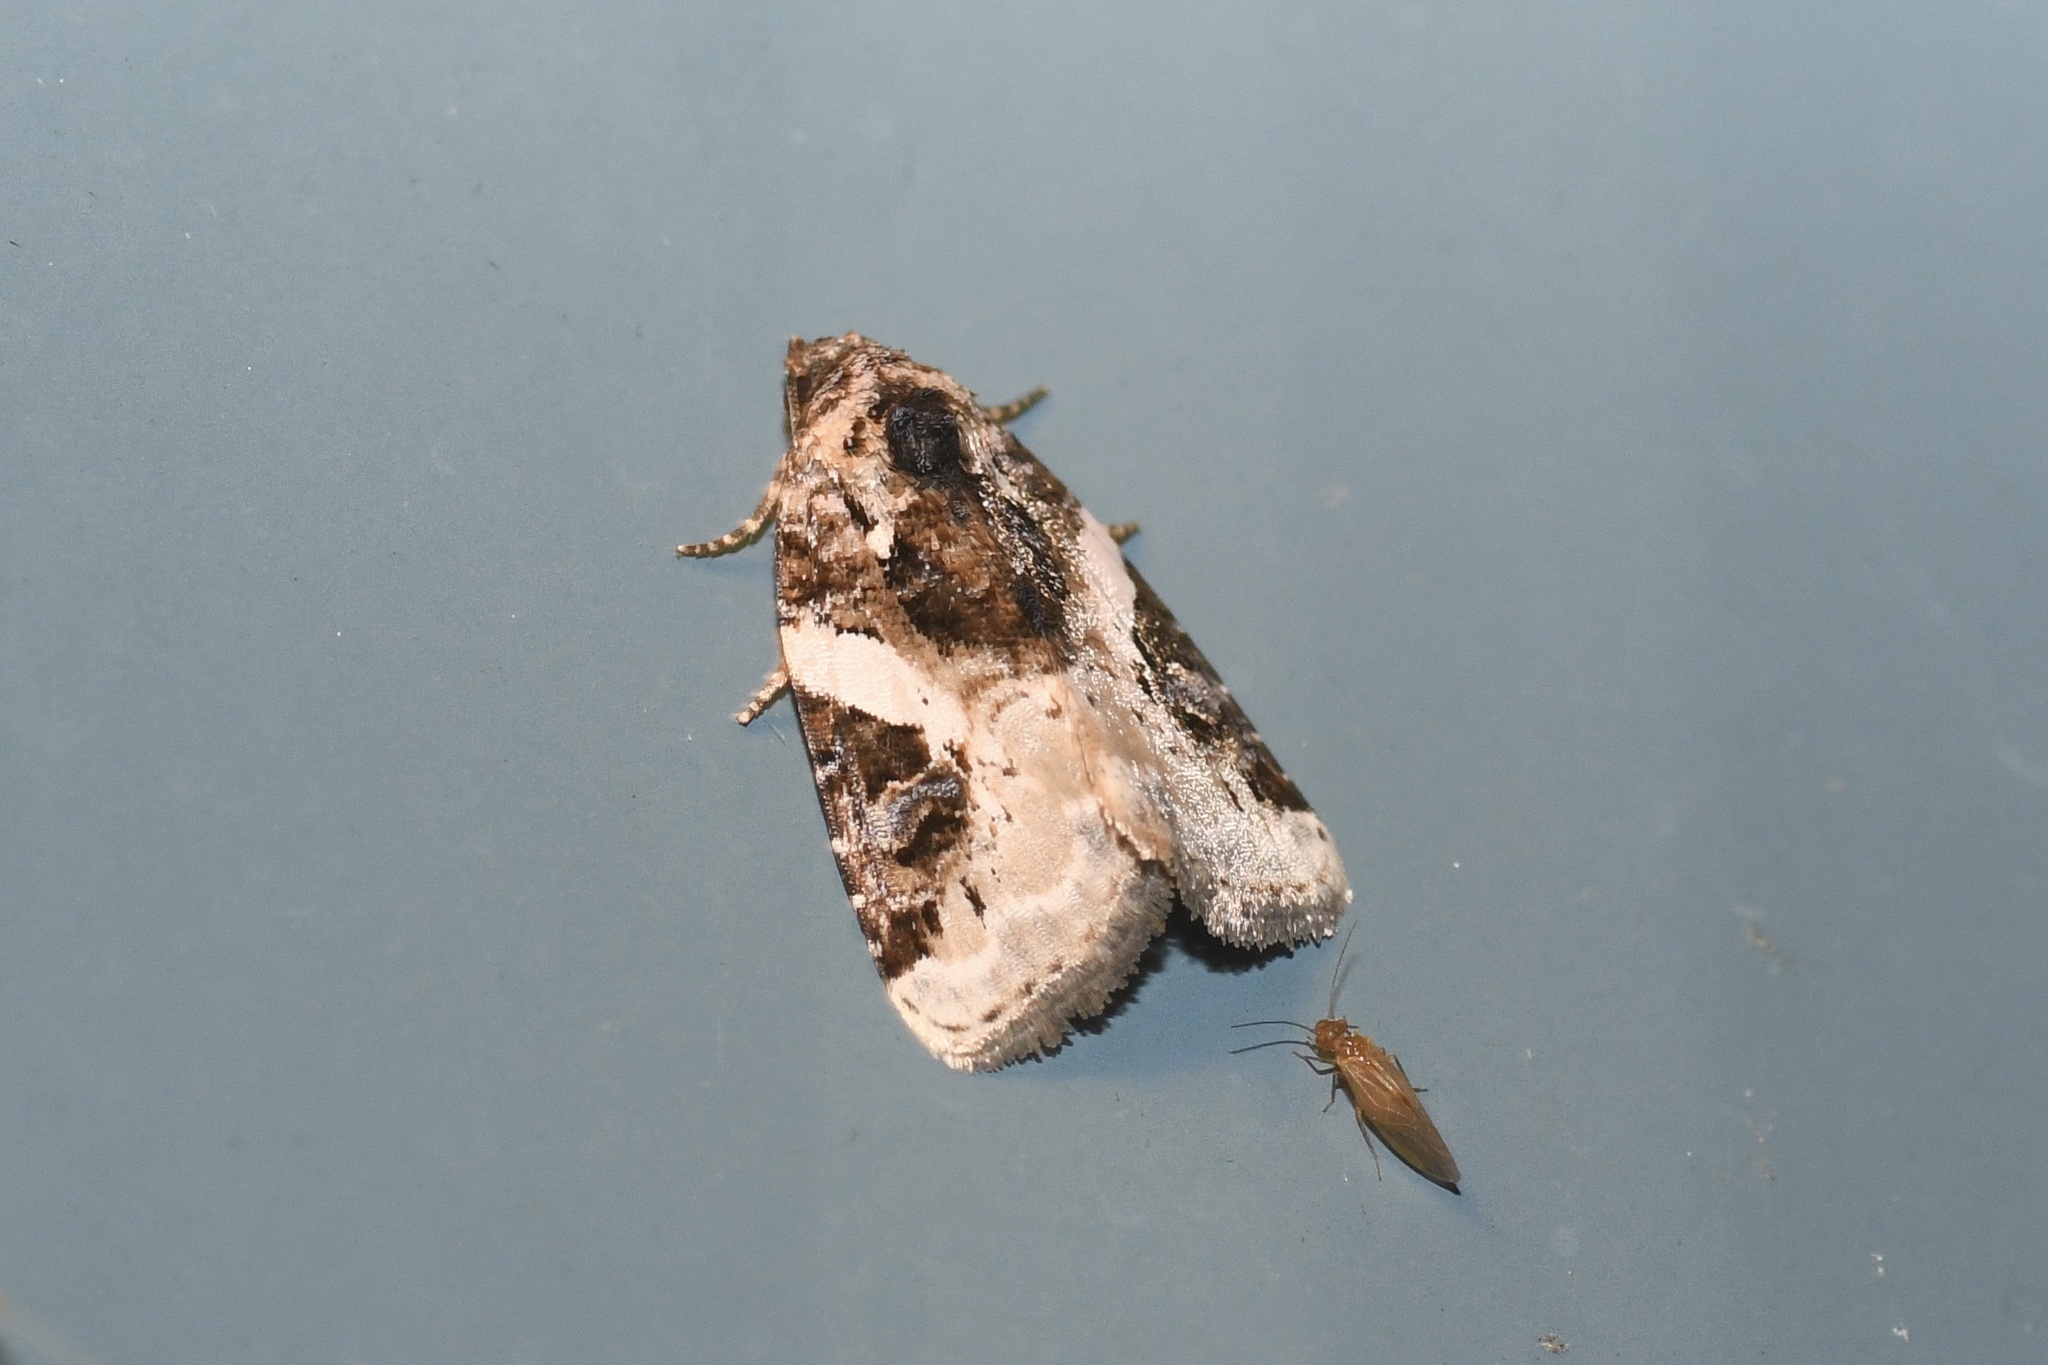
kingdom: Animalia
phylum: Arthropoda
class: Insecta
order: Lepidoptera
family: Noctuidae
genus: Pseudeustrotia
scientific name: Pseudeustrotia carneola
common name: Pink-barred lithacodia moth
